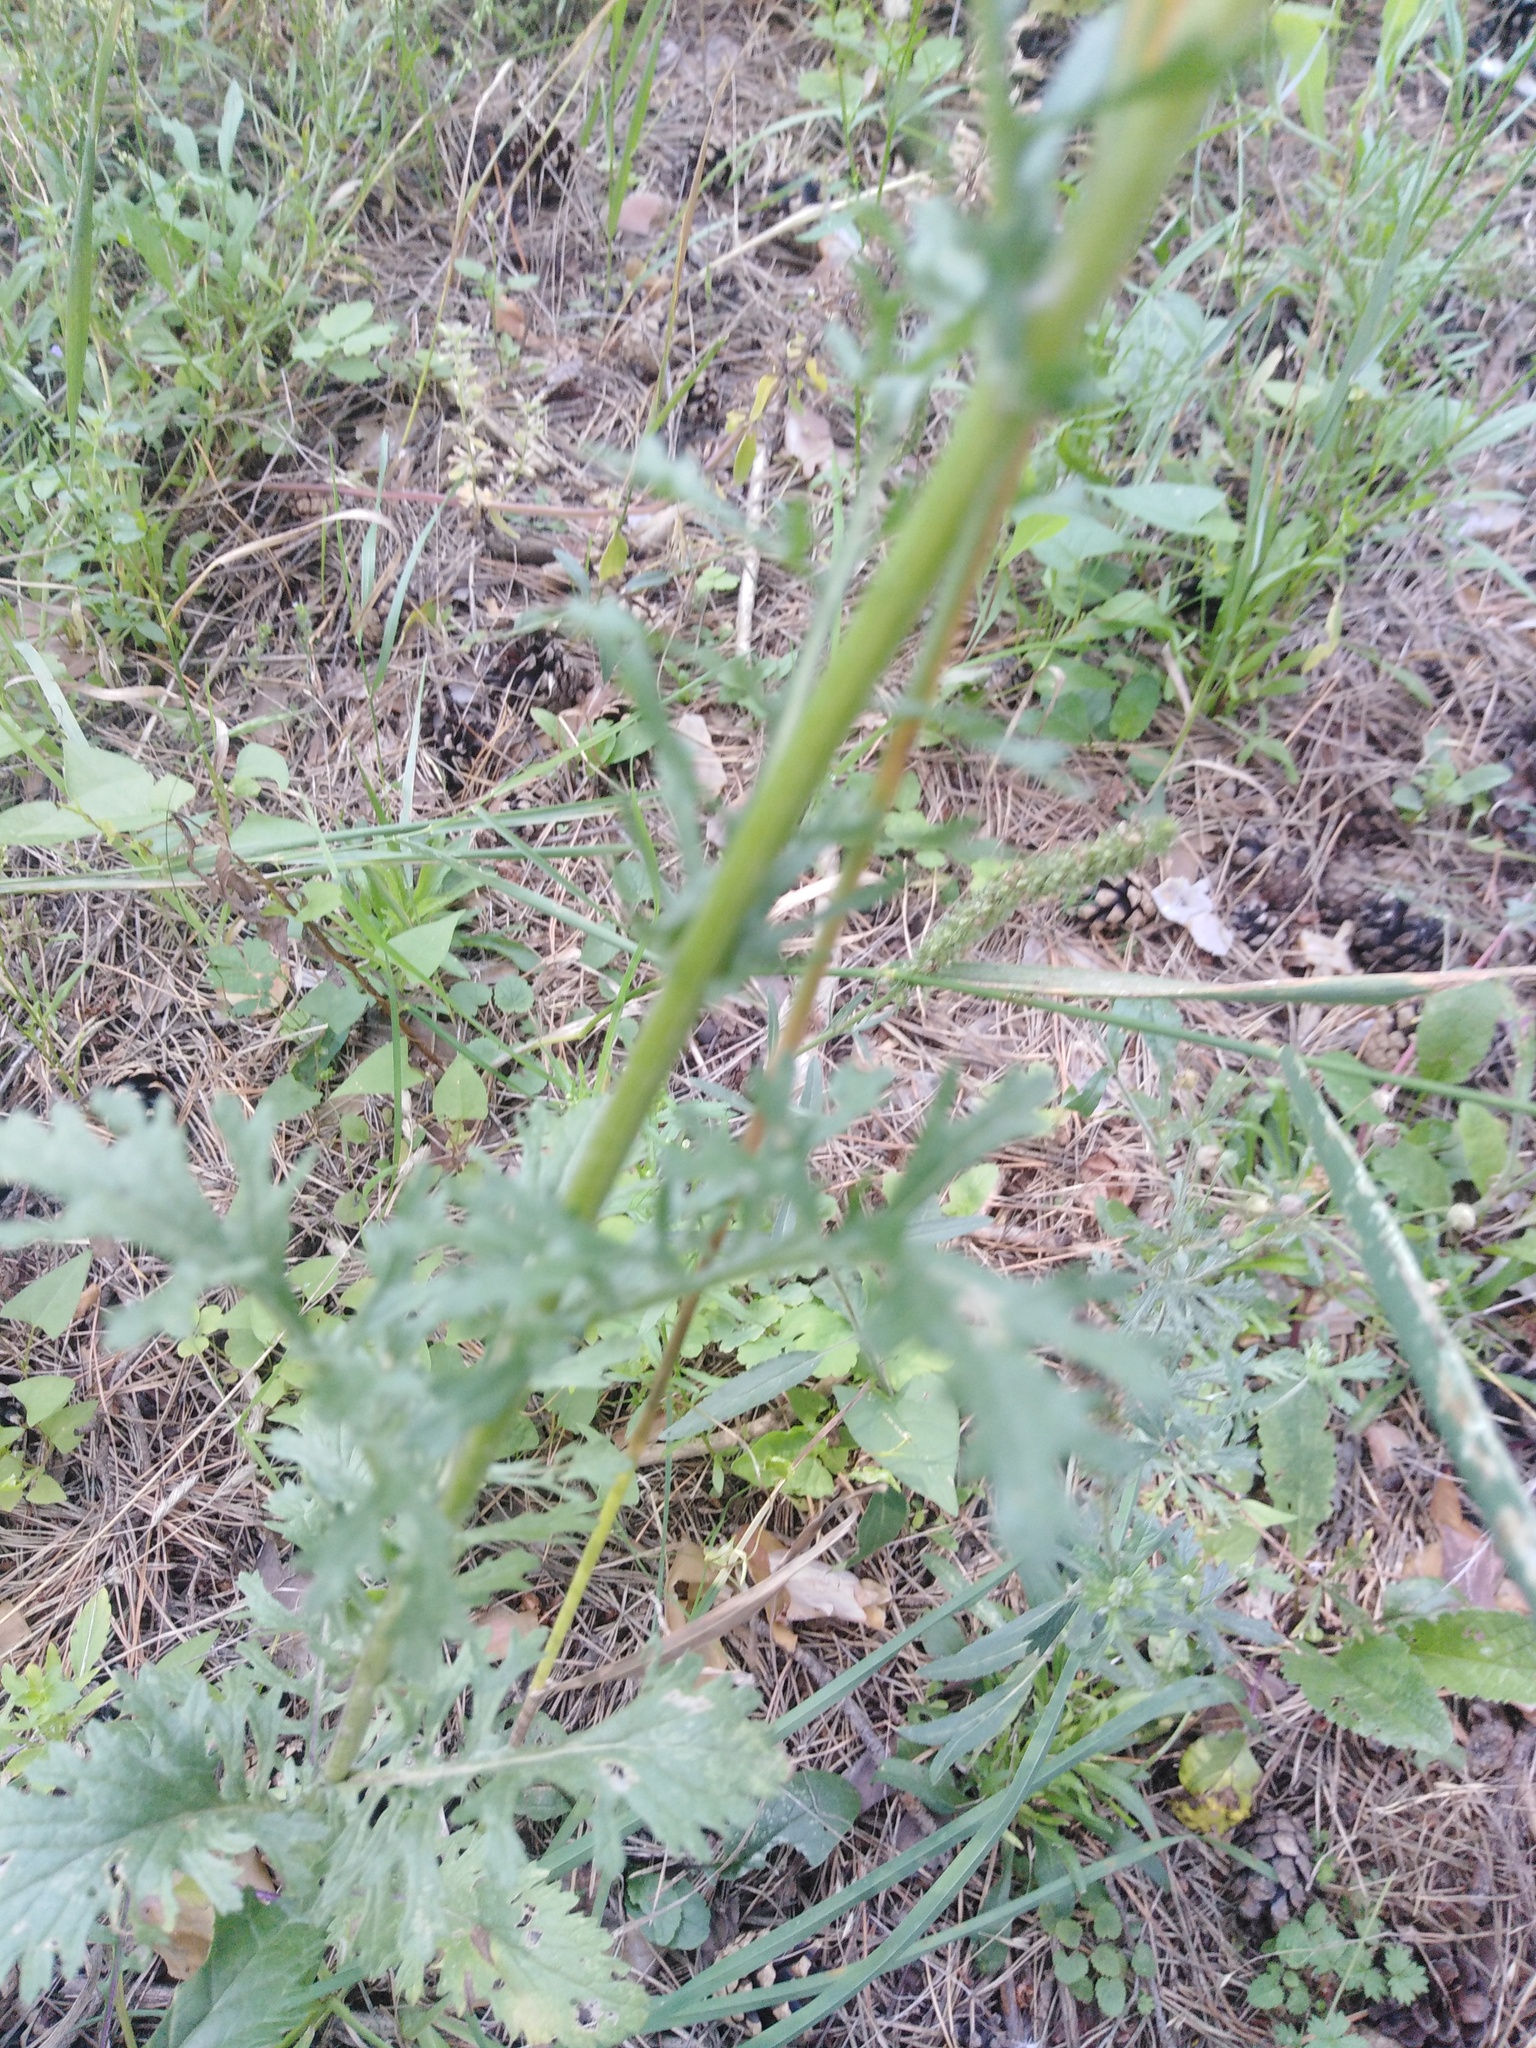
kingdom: Plantae
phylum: Tracheophyta
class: Magnoliopsida
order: Asterales
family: Asteraceae
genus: Jacobaea
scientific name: Jacobaea vulgaris
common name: Stinking willie
